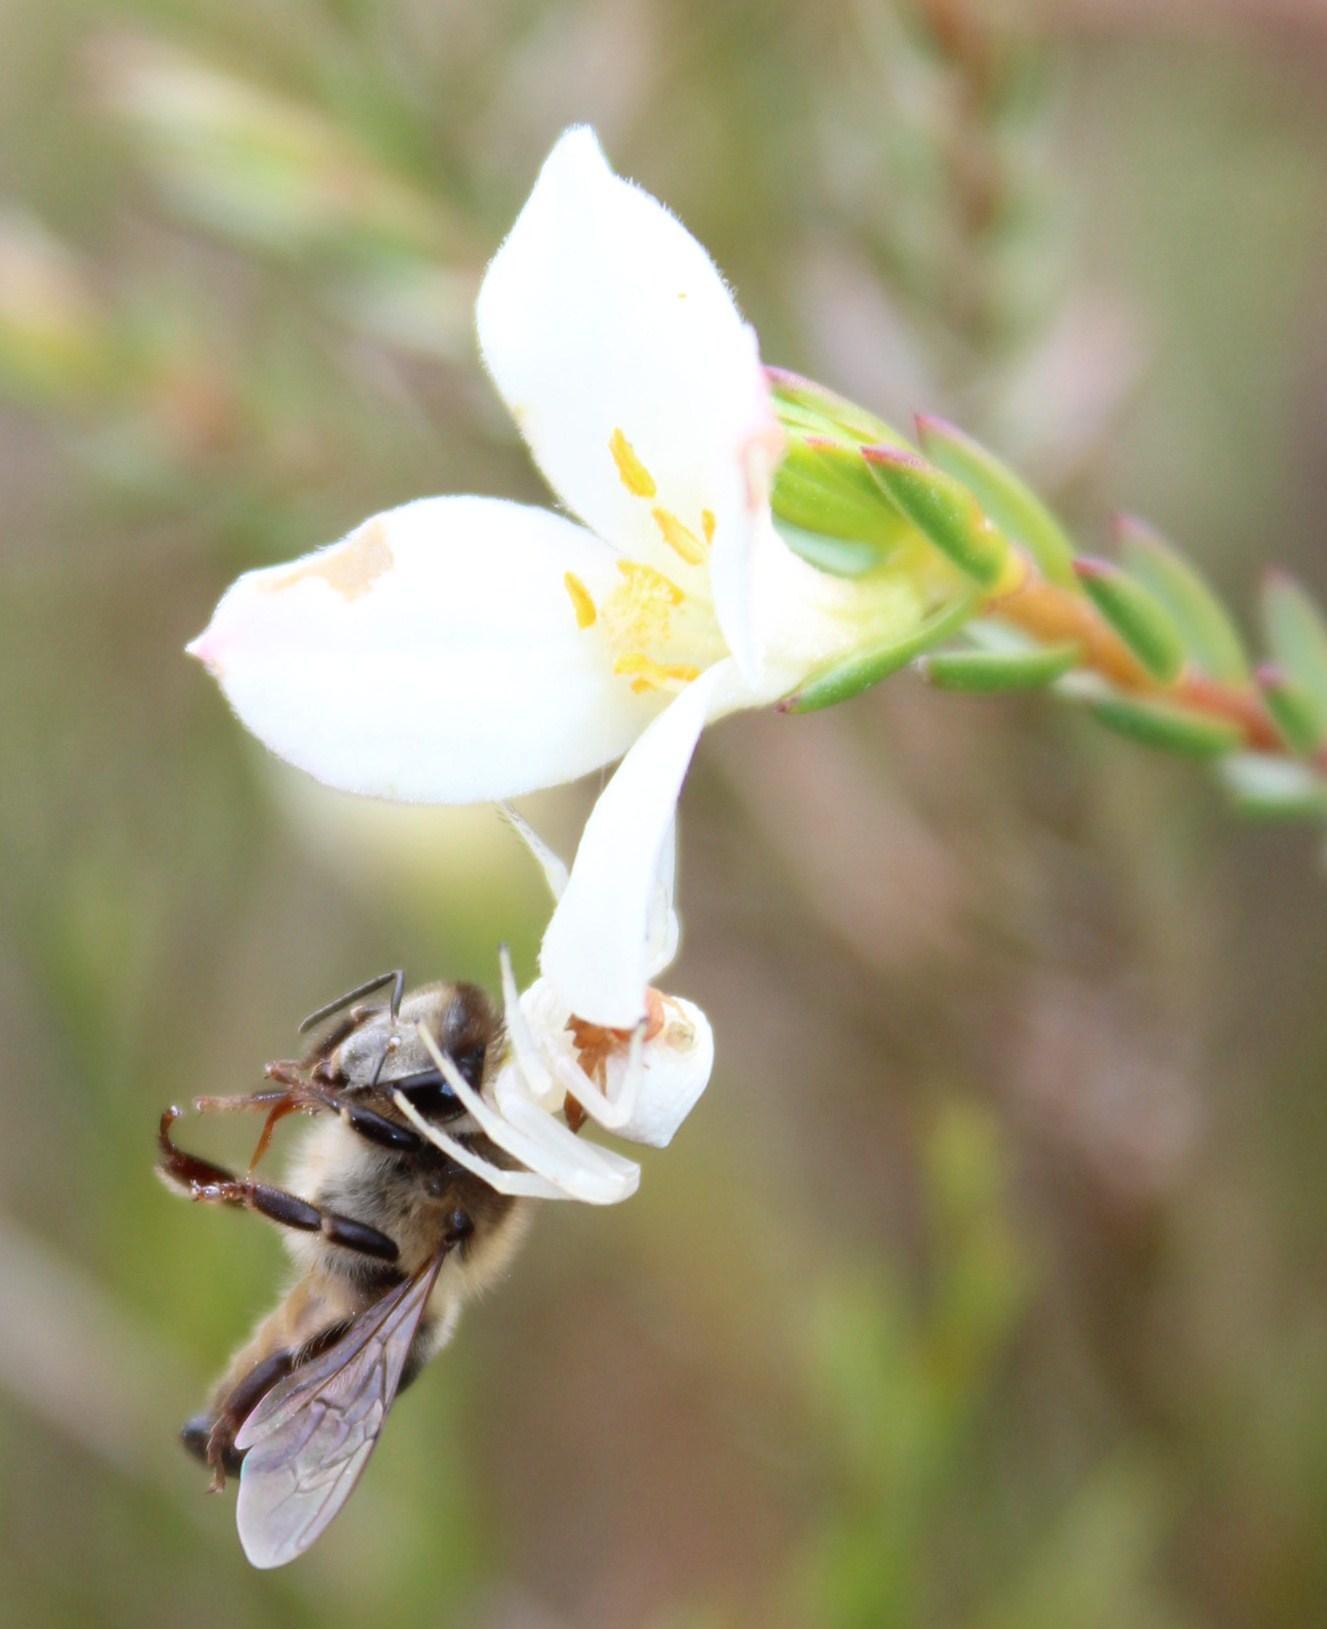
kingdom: Plantae
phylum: Tracheophyta
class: Magnoliopsida
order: Malvales
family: Thymelaeaceae
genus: Lachnaea
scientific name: Lachnaea grandiflora
